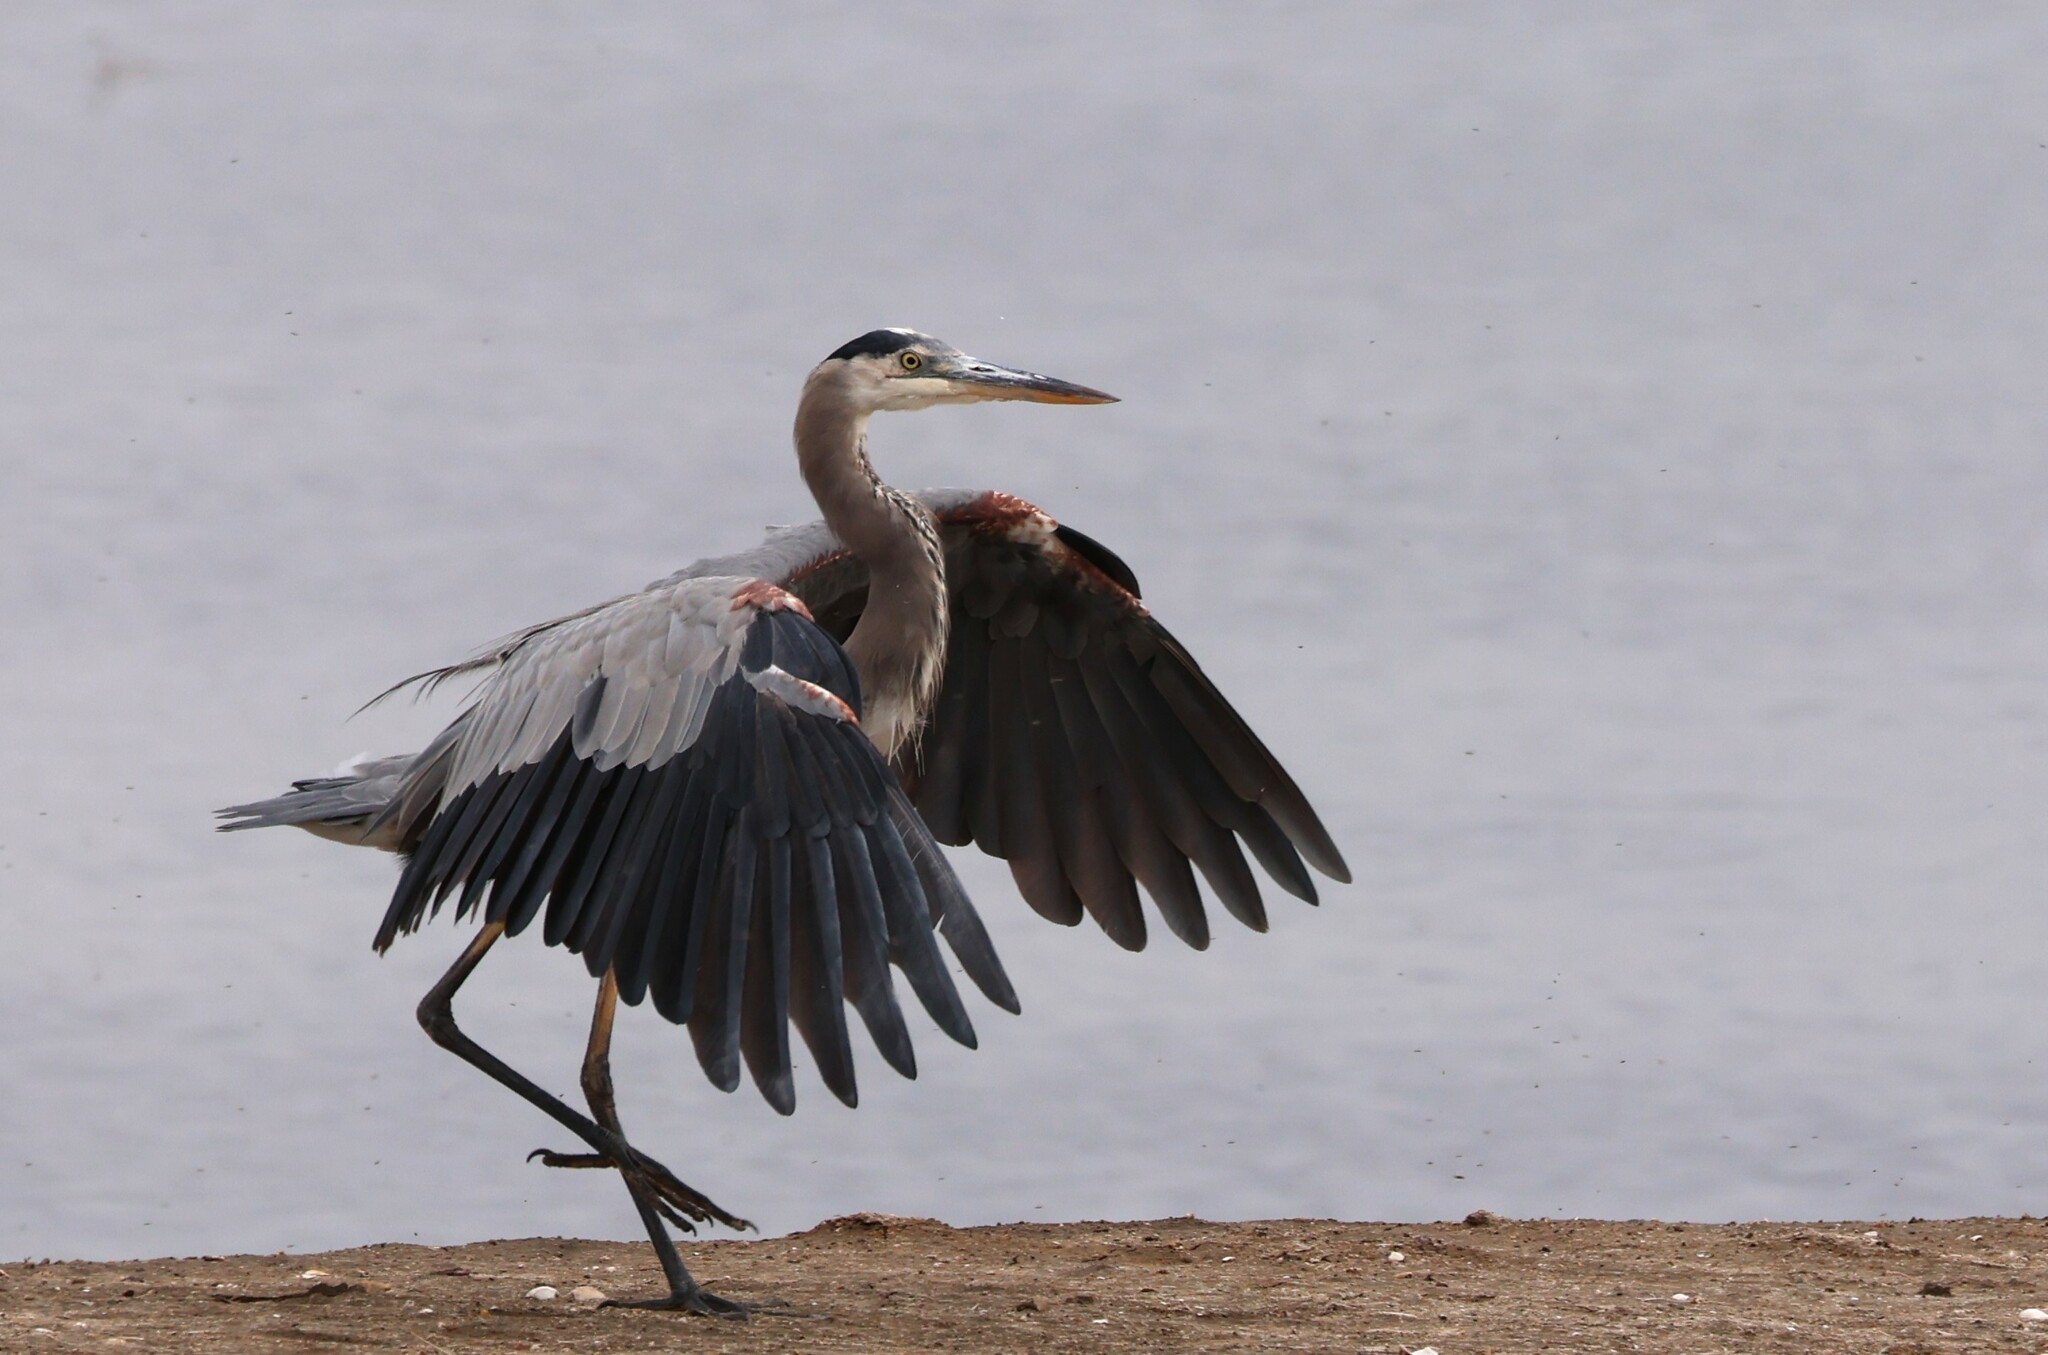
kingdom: Animalia
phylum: Chordata
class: Aves
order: Pelecaniformes
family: Ardeidae
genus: Ardea
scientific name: Ardea herodias
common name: Great blue heron
